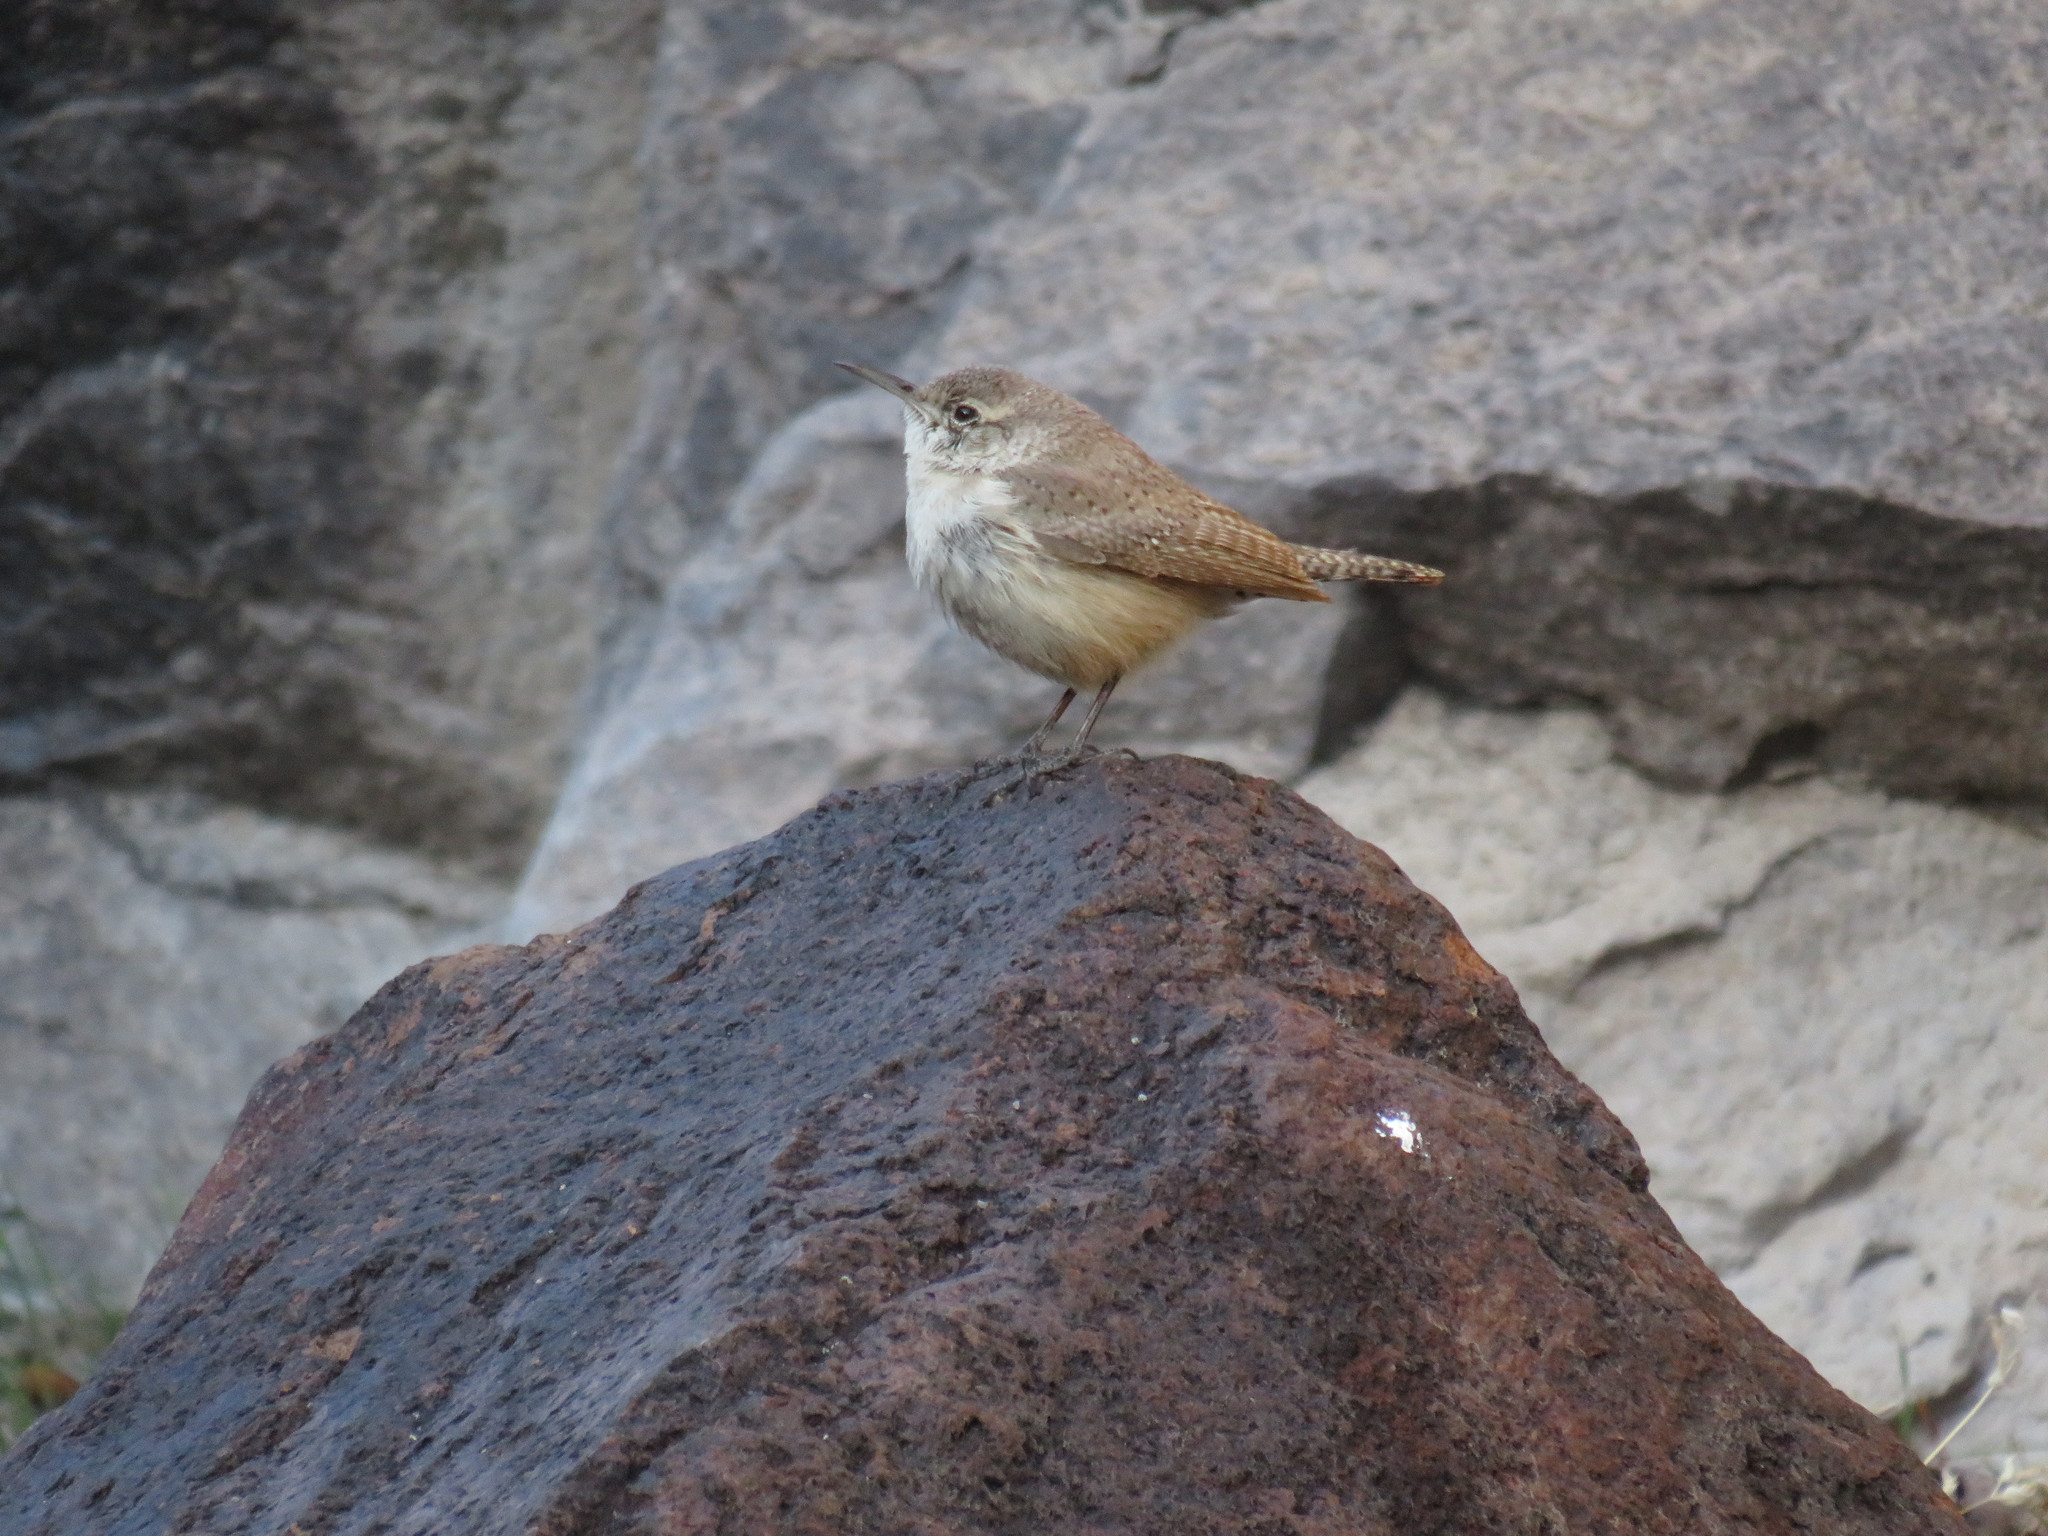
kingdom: Animalia
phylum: Chordata
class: Aves
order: Passeriformes
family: Troglodytidae
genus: Salpinctes
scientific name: Salpinctes obsoletus
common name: Rock wren
